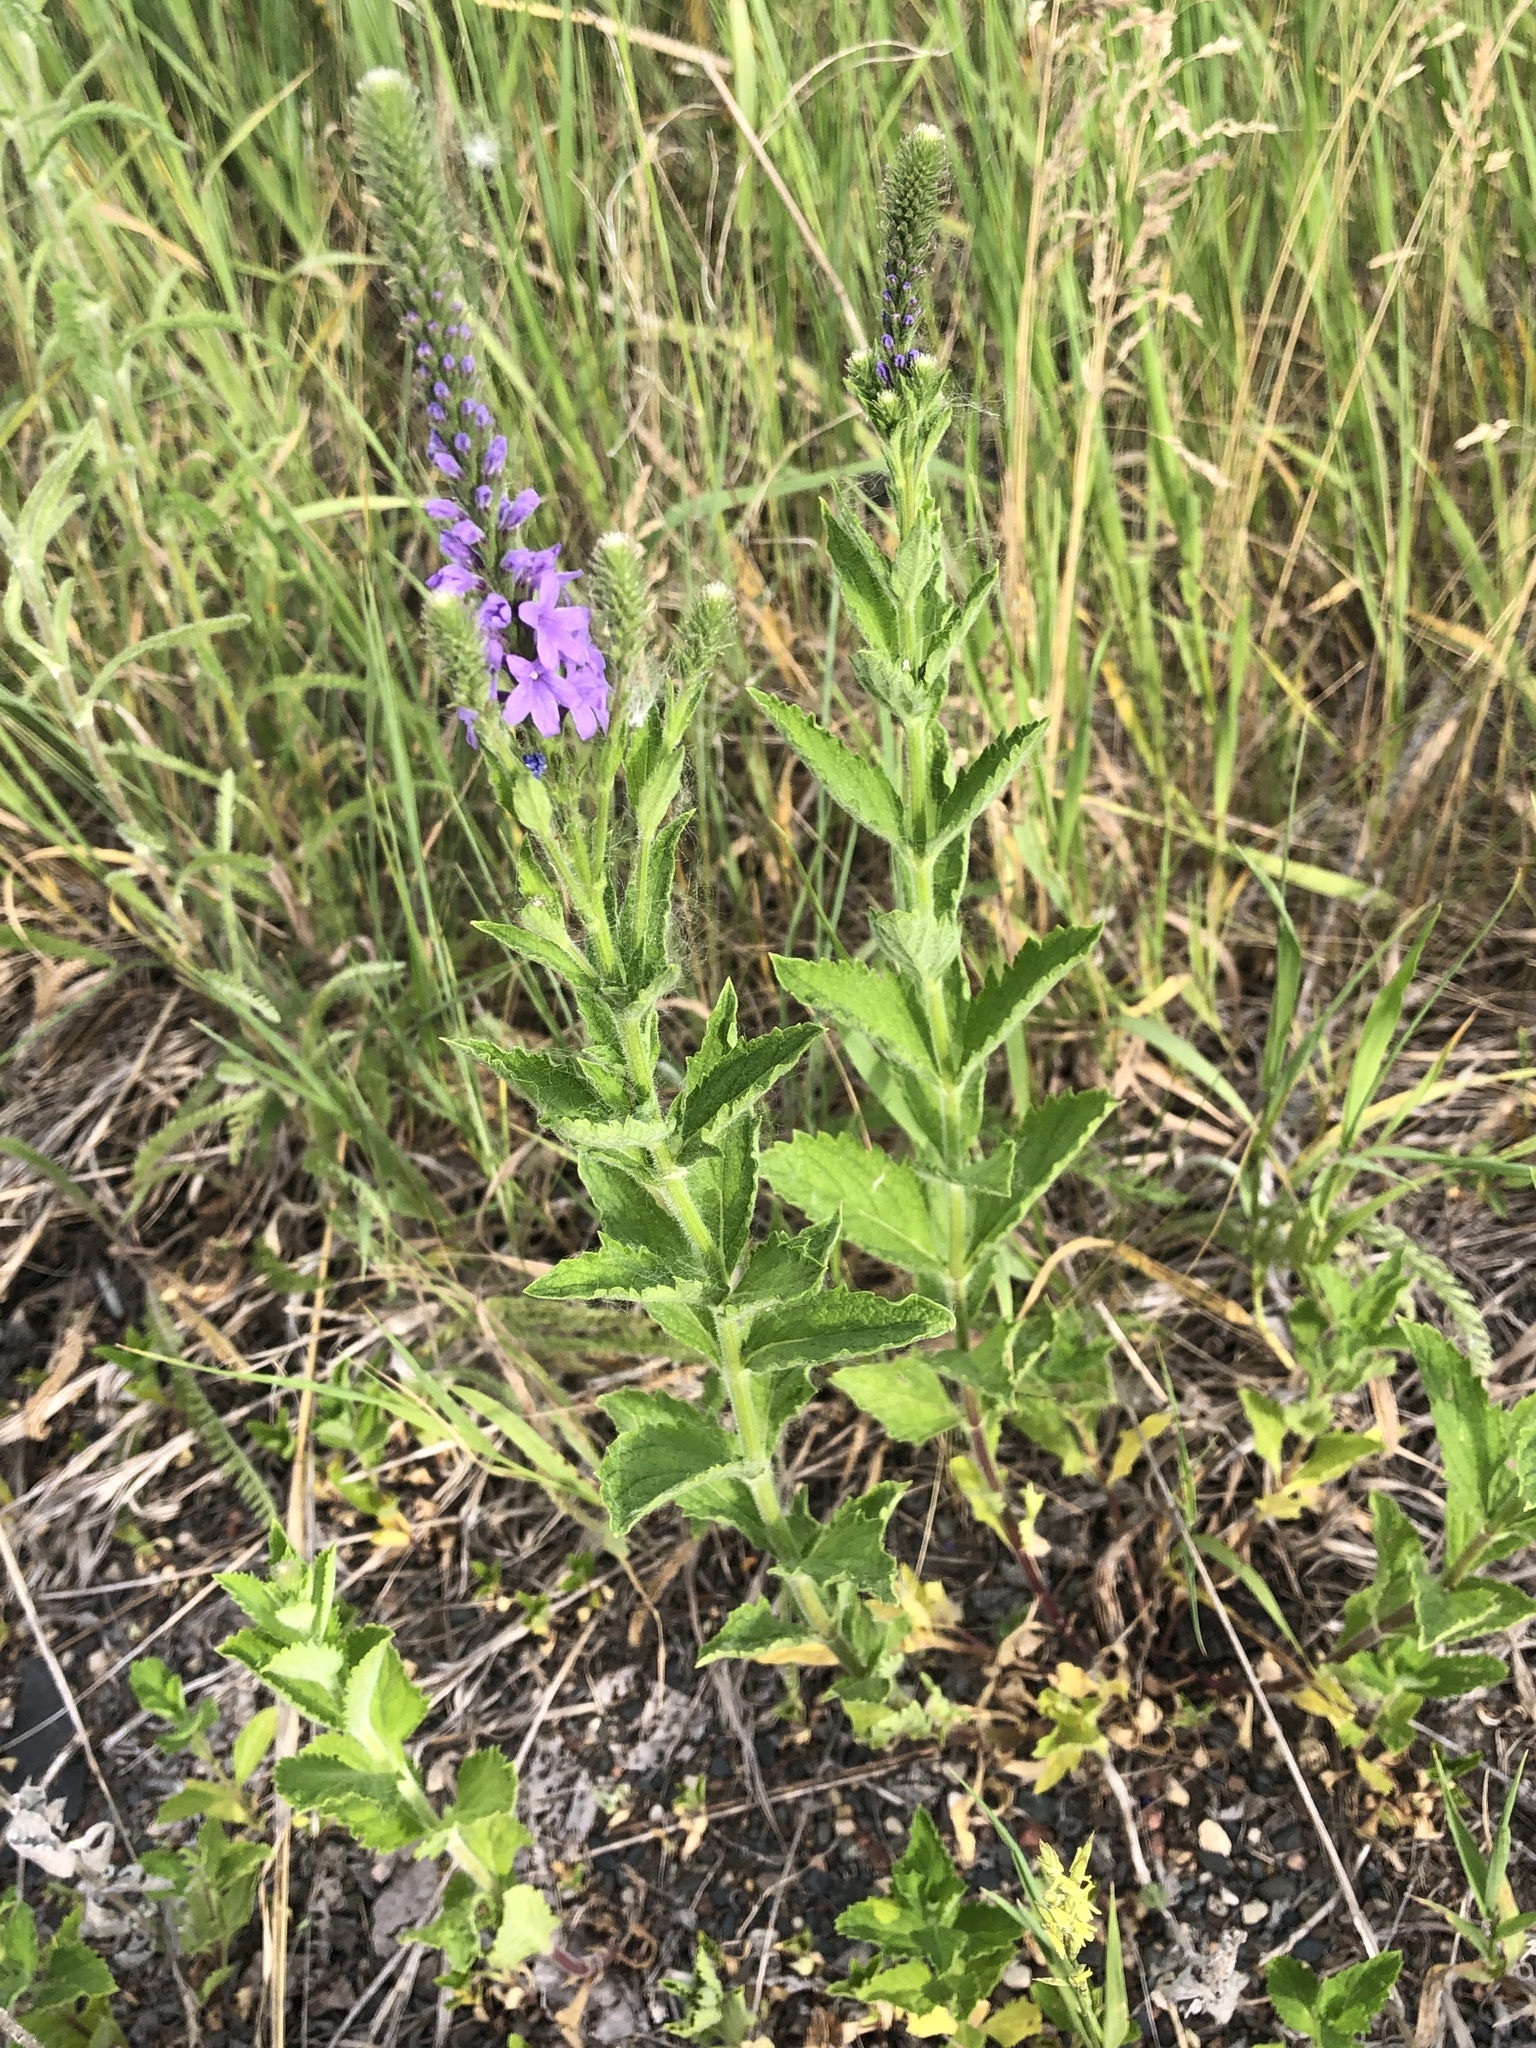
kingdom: Plantae
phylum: Tracheophyta
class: Magnoliopsida
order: Lamiales
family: Verbenaceae
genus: Verbena
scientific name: Verbena stricta
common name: Hoary vervain
